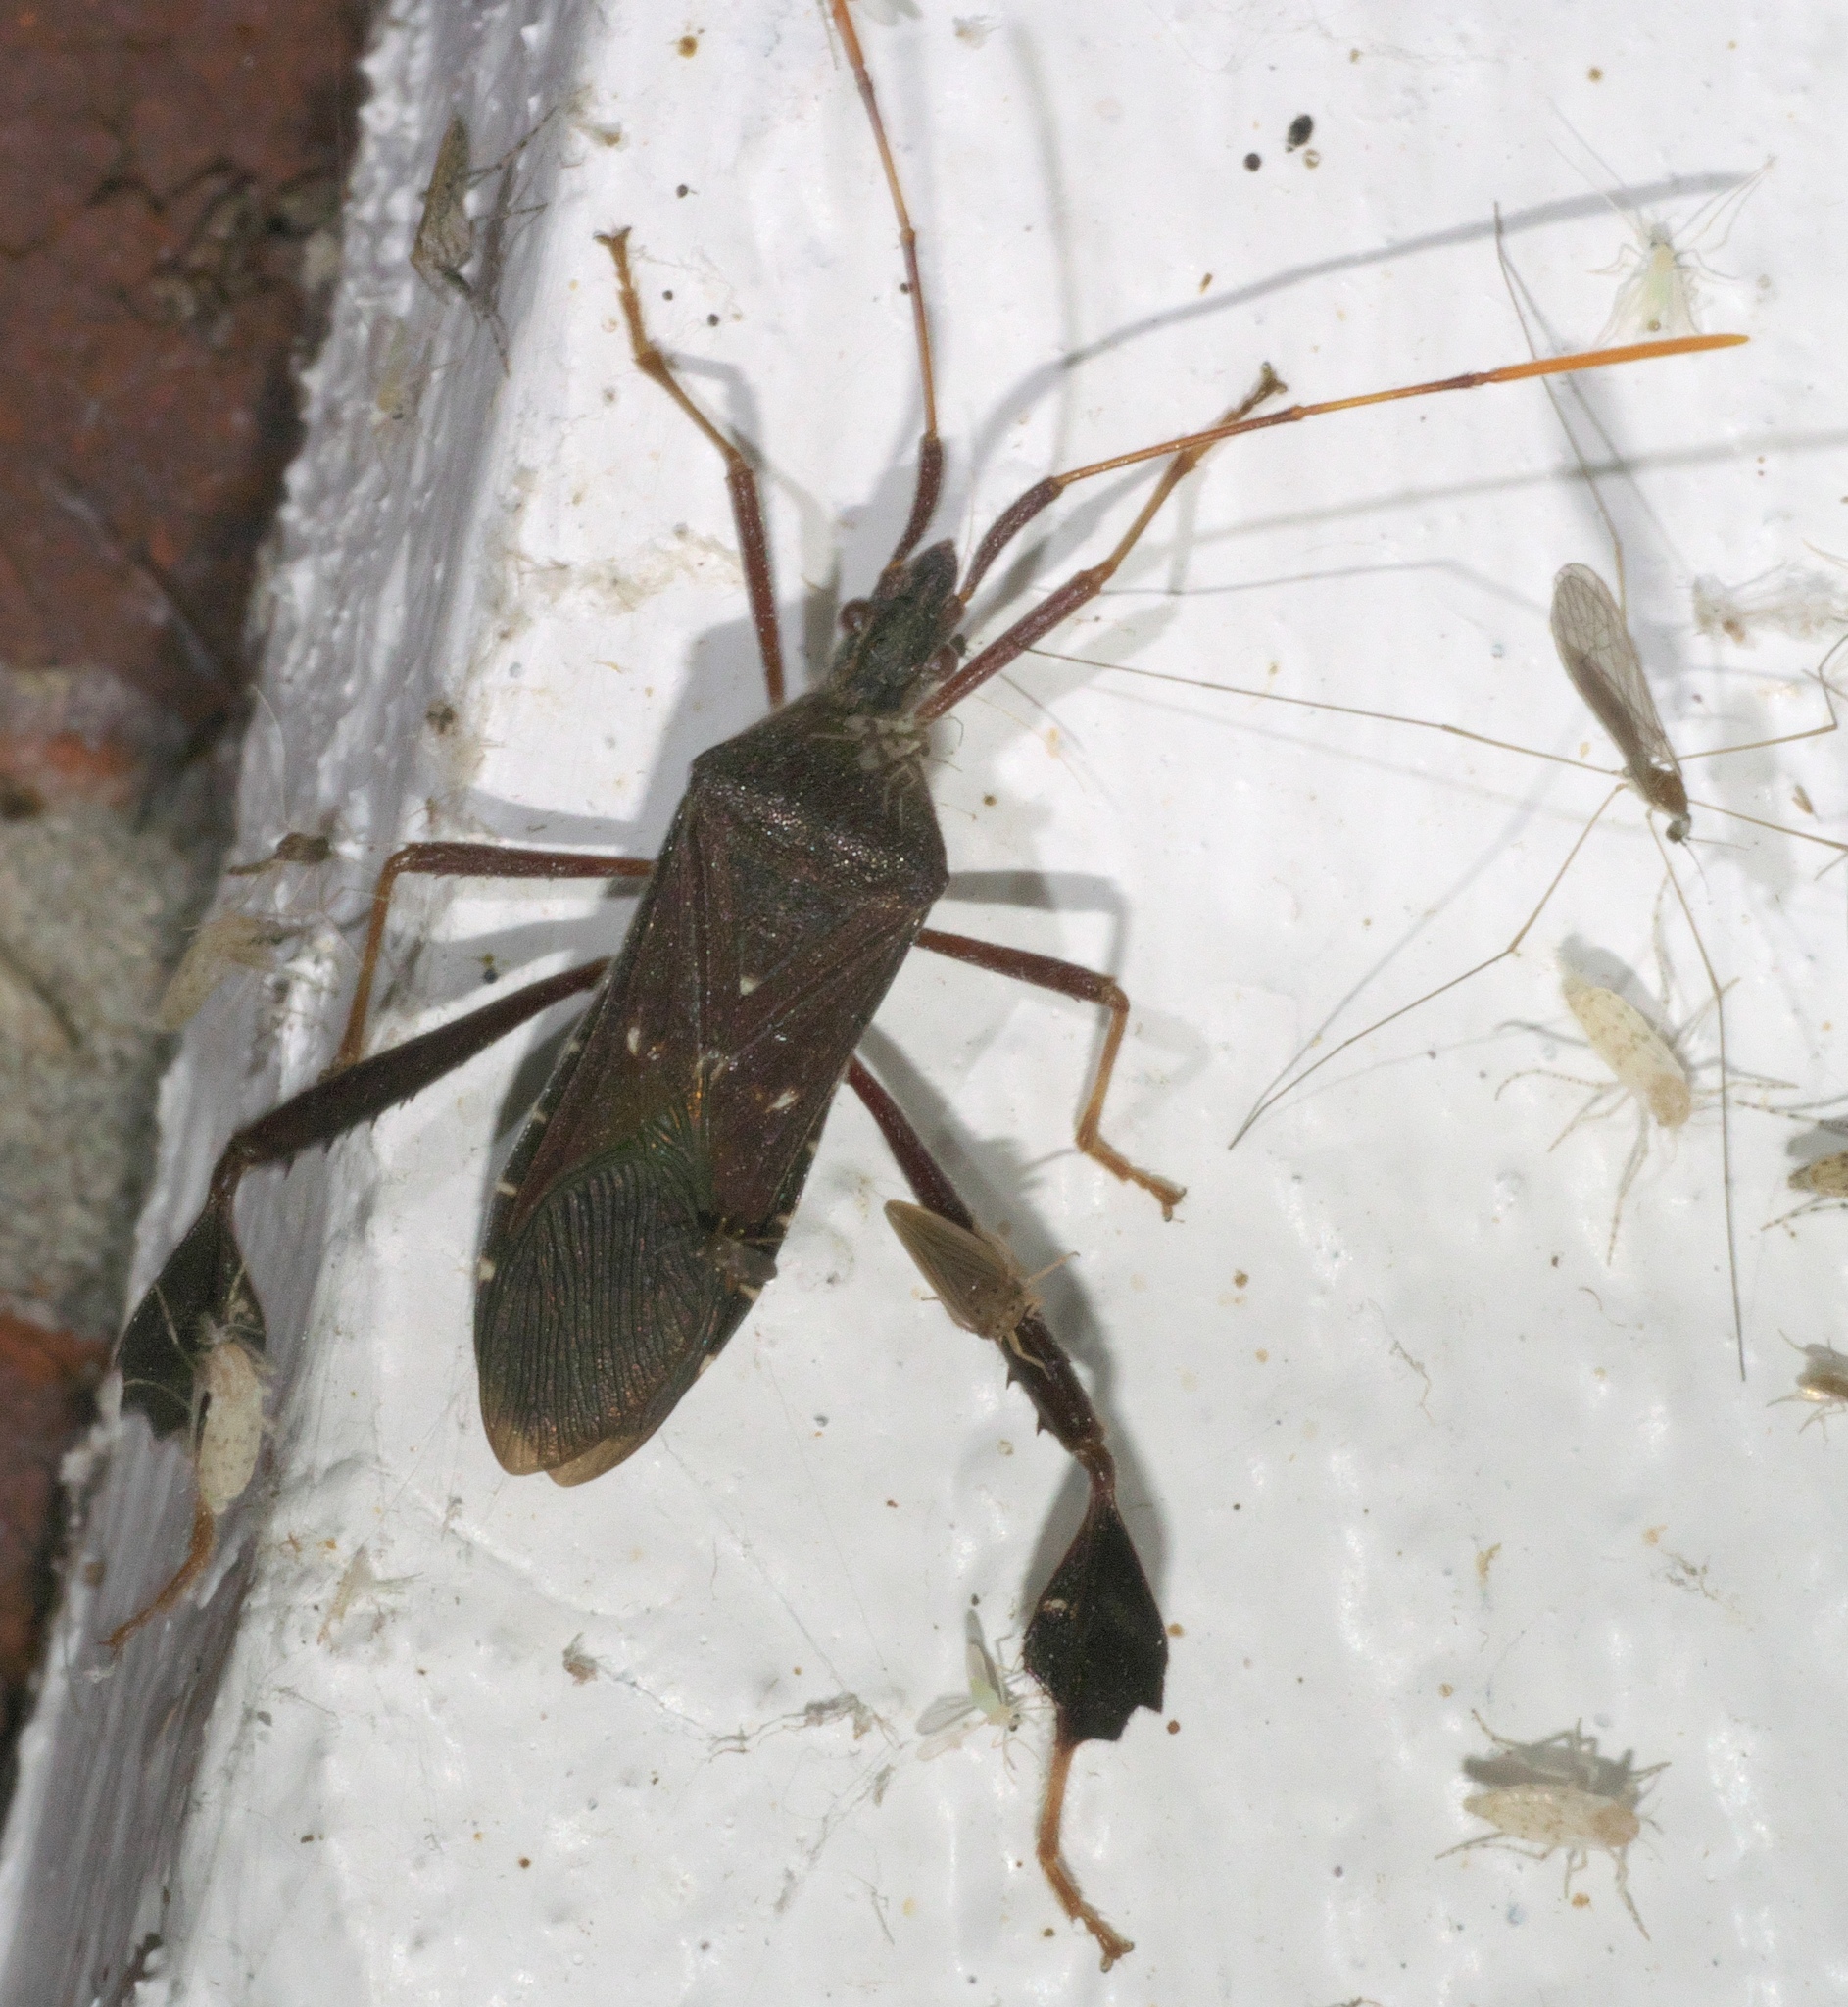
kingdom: Animalia
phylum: Arthropoda
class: Insecta
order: Hemiptera
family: Coreidae
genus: Leptoglossus
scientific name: Leptoglossus oppositus
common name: Northern leaf-footed bug
